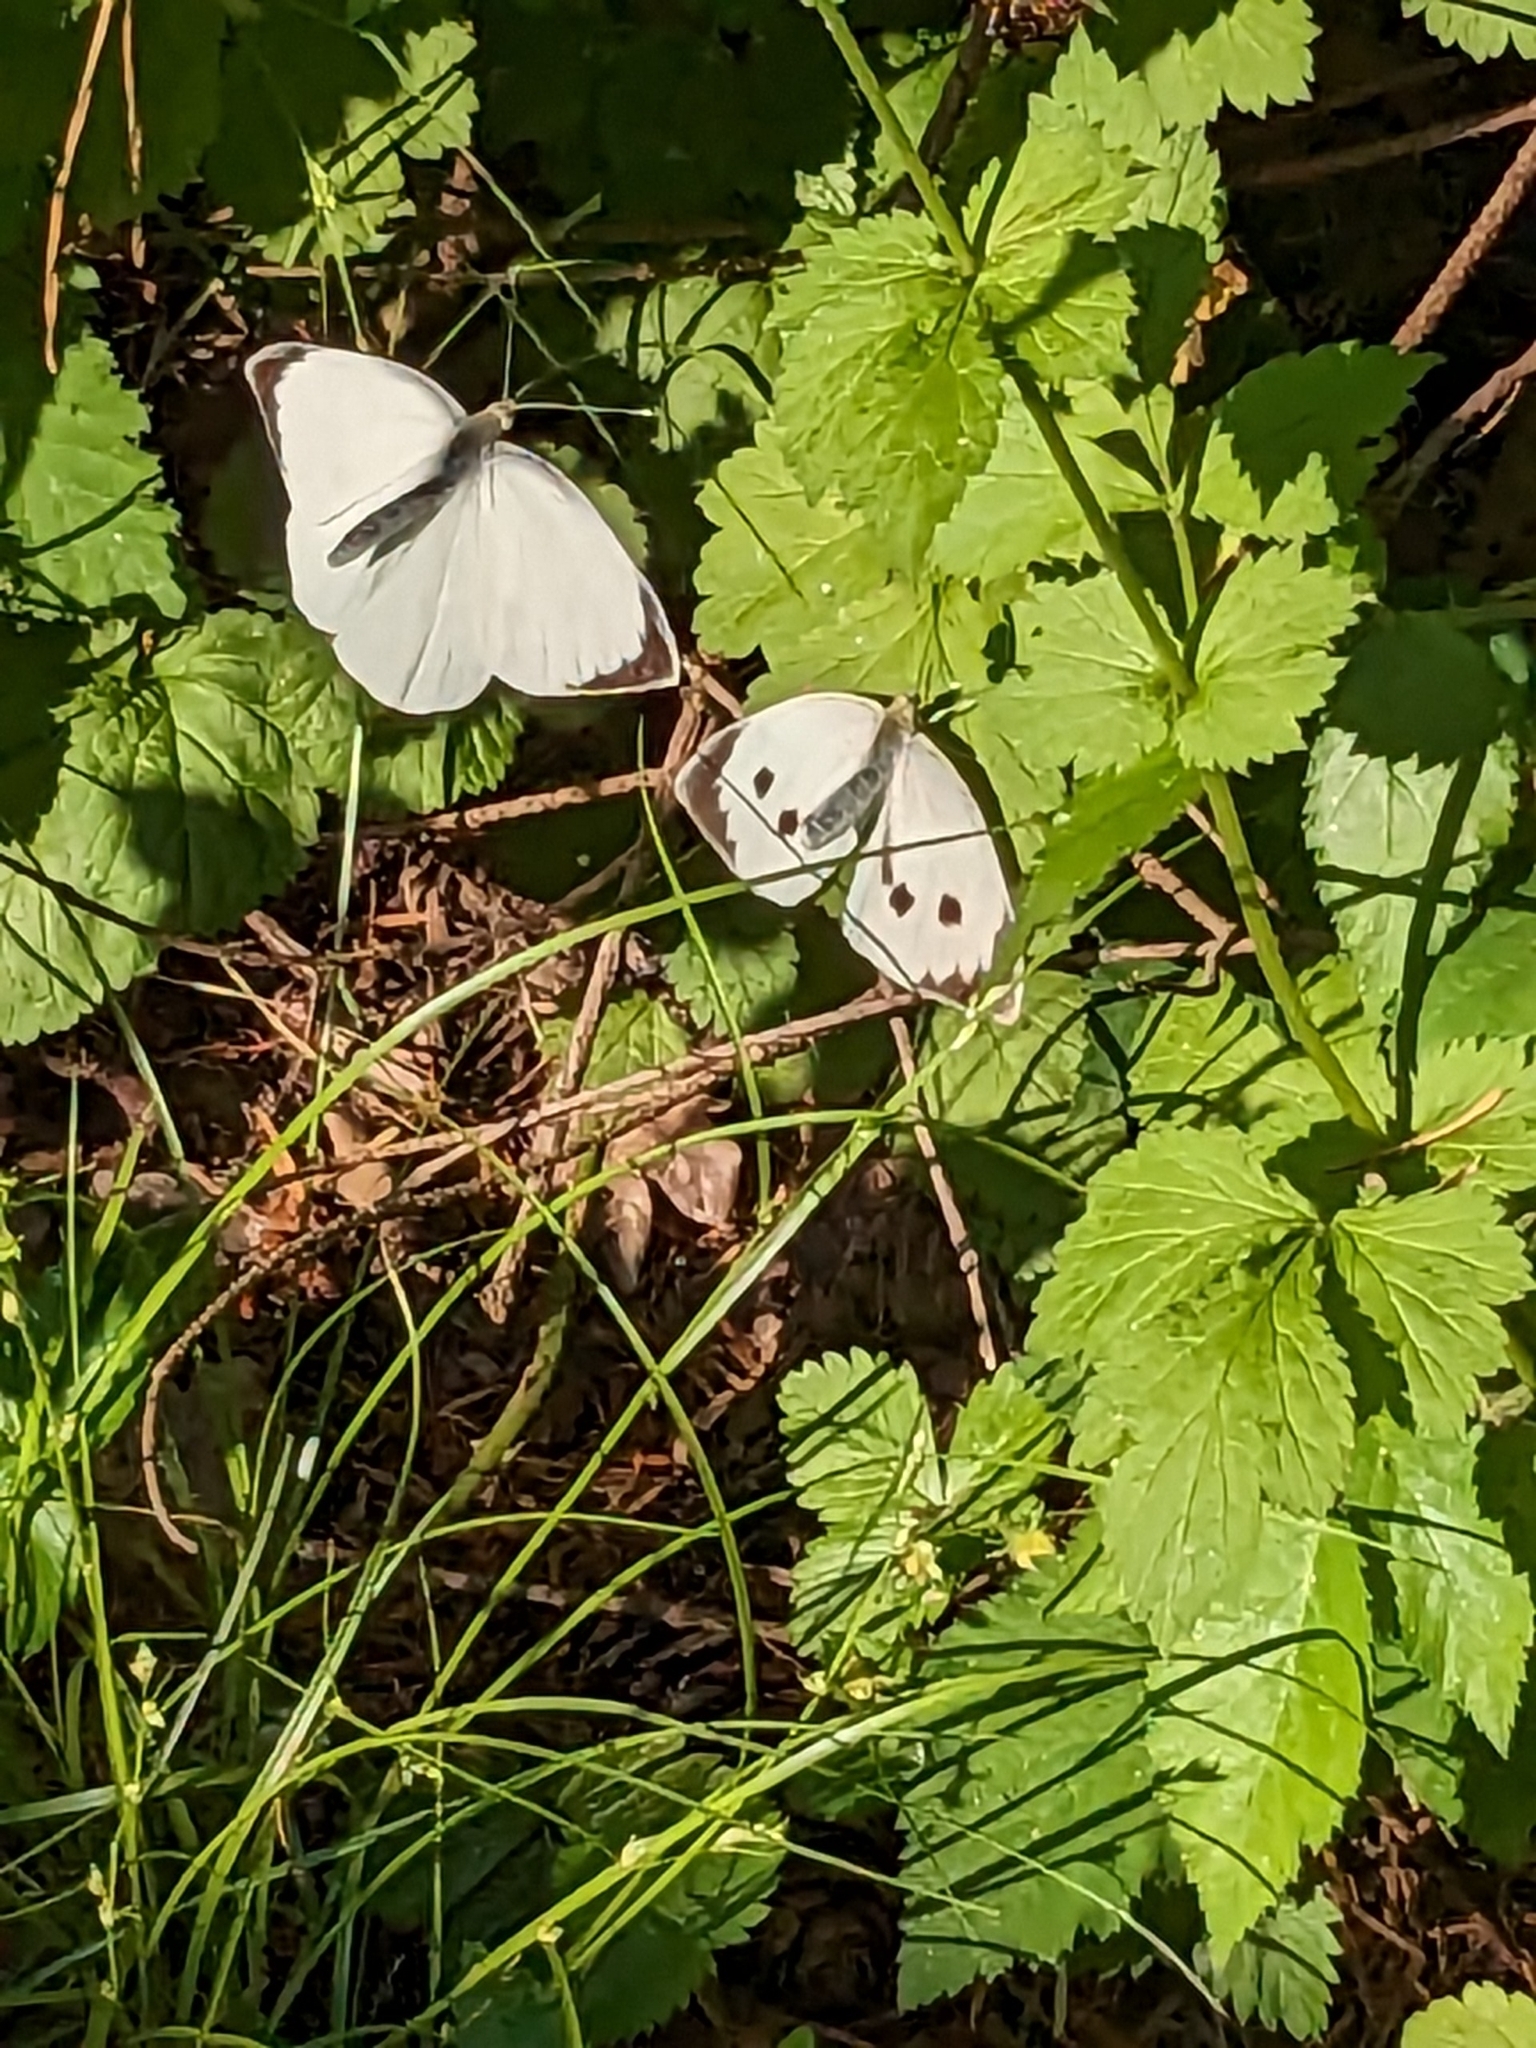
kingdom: Animalia
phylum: Arthropoda
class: Insecta
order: Lepidoptera
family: Pieridae
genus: Pieris
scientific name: Pieris brassicae
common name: Large white
